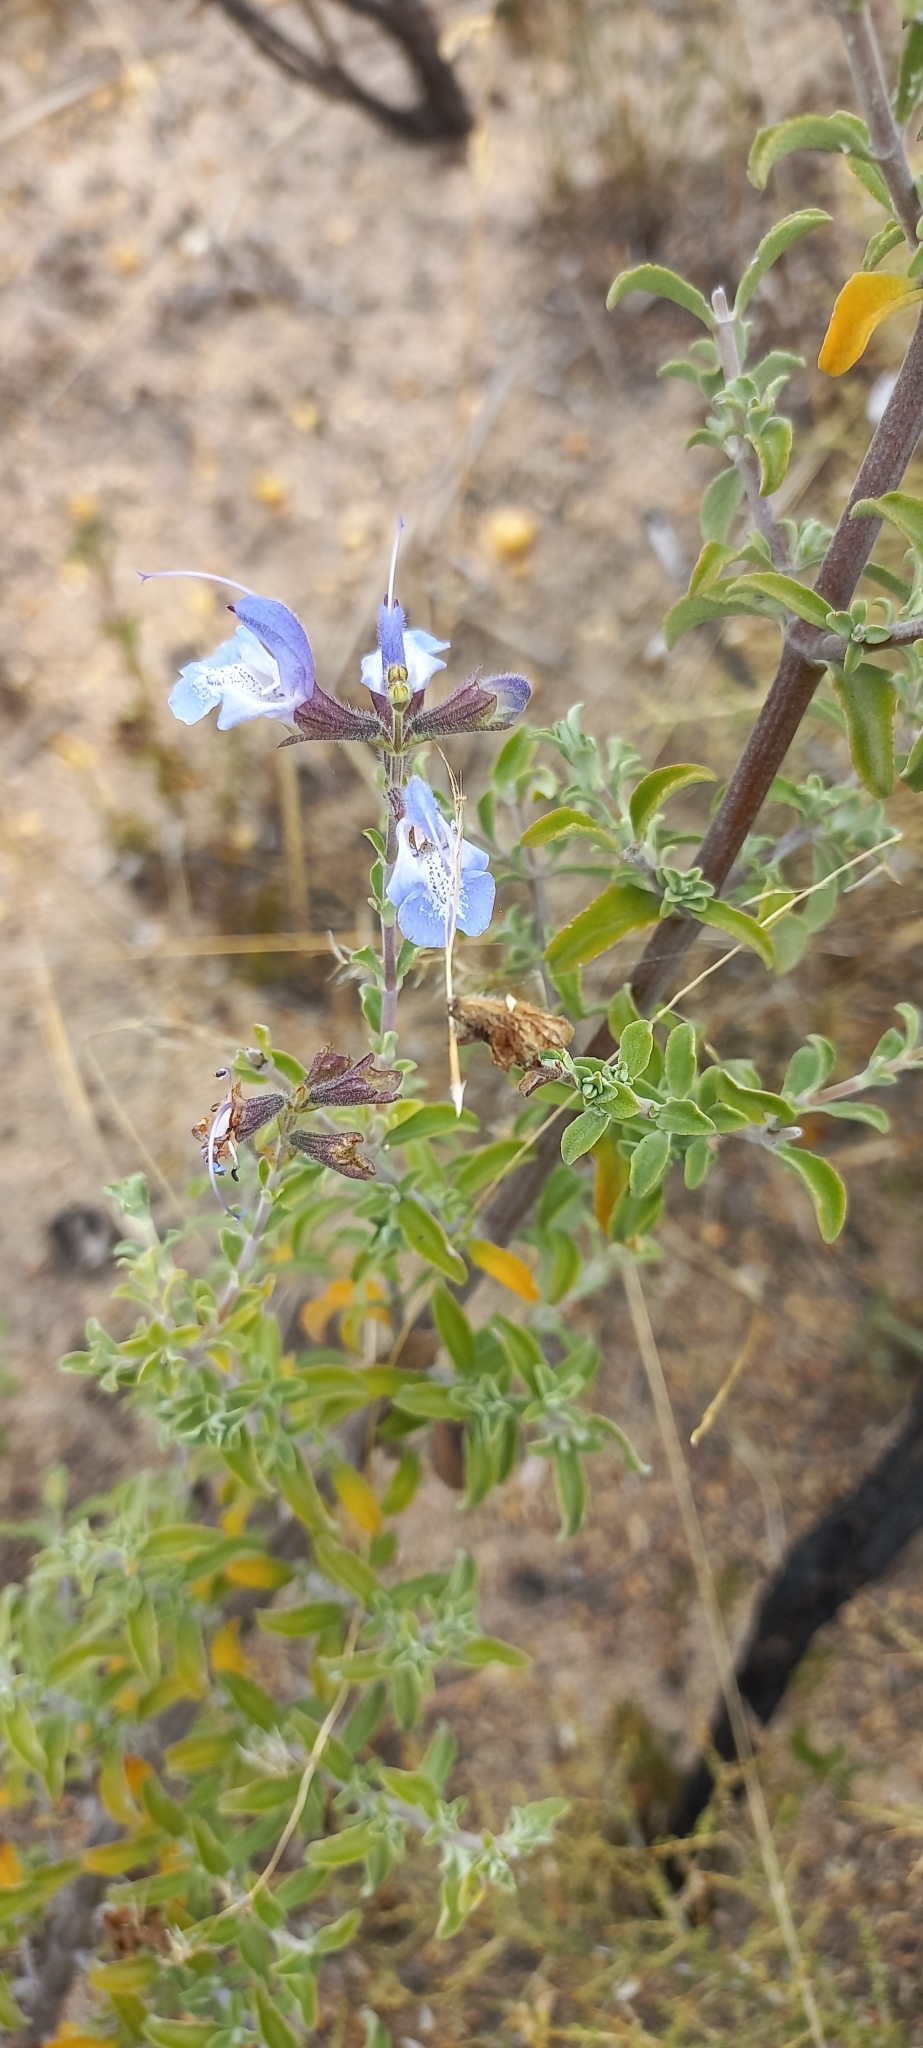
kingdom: Plantae
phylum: Tracheophyta
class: Magnoliopsida
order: Lamiales
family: Lamiaceae
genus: Salvia
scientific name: Salvia africana
